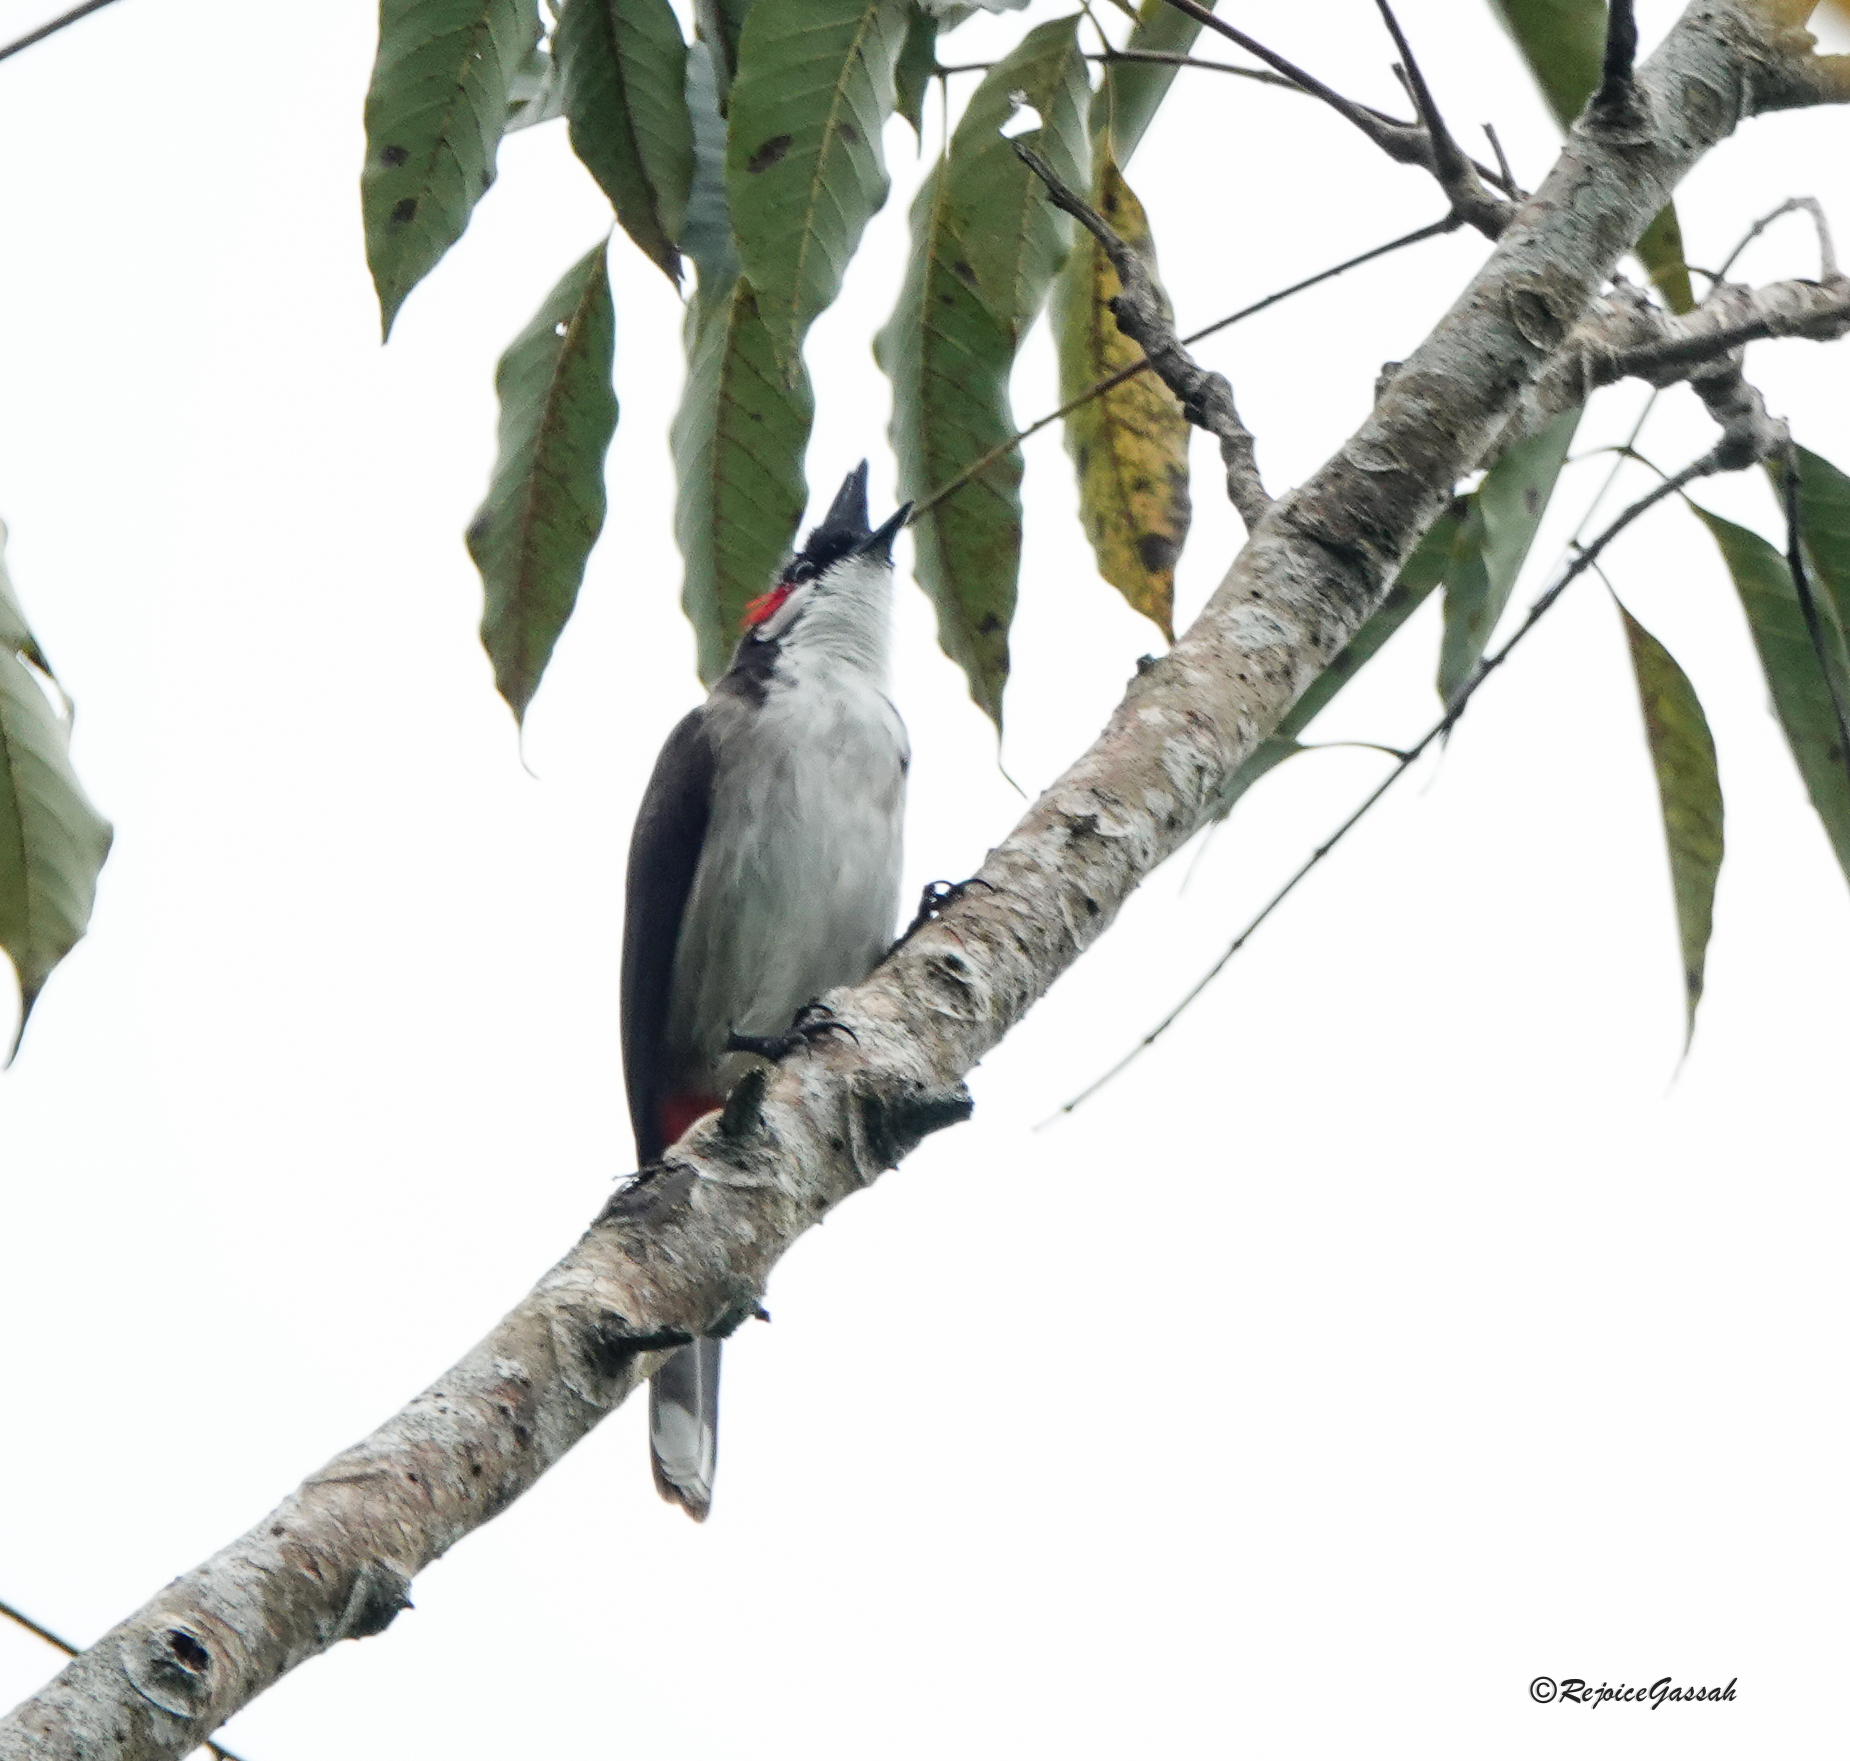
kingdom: Animalia
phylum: Chordata
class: Aves
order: Passeriformes
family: Pycnonotidae
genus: Pycnonotus
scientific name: Pycnonotus jocosus
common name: Red-whiskered bulbul
